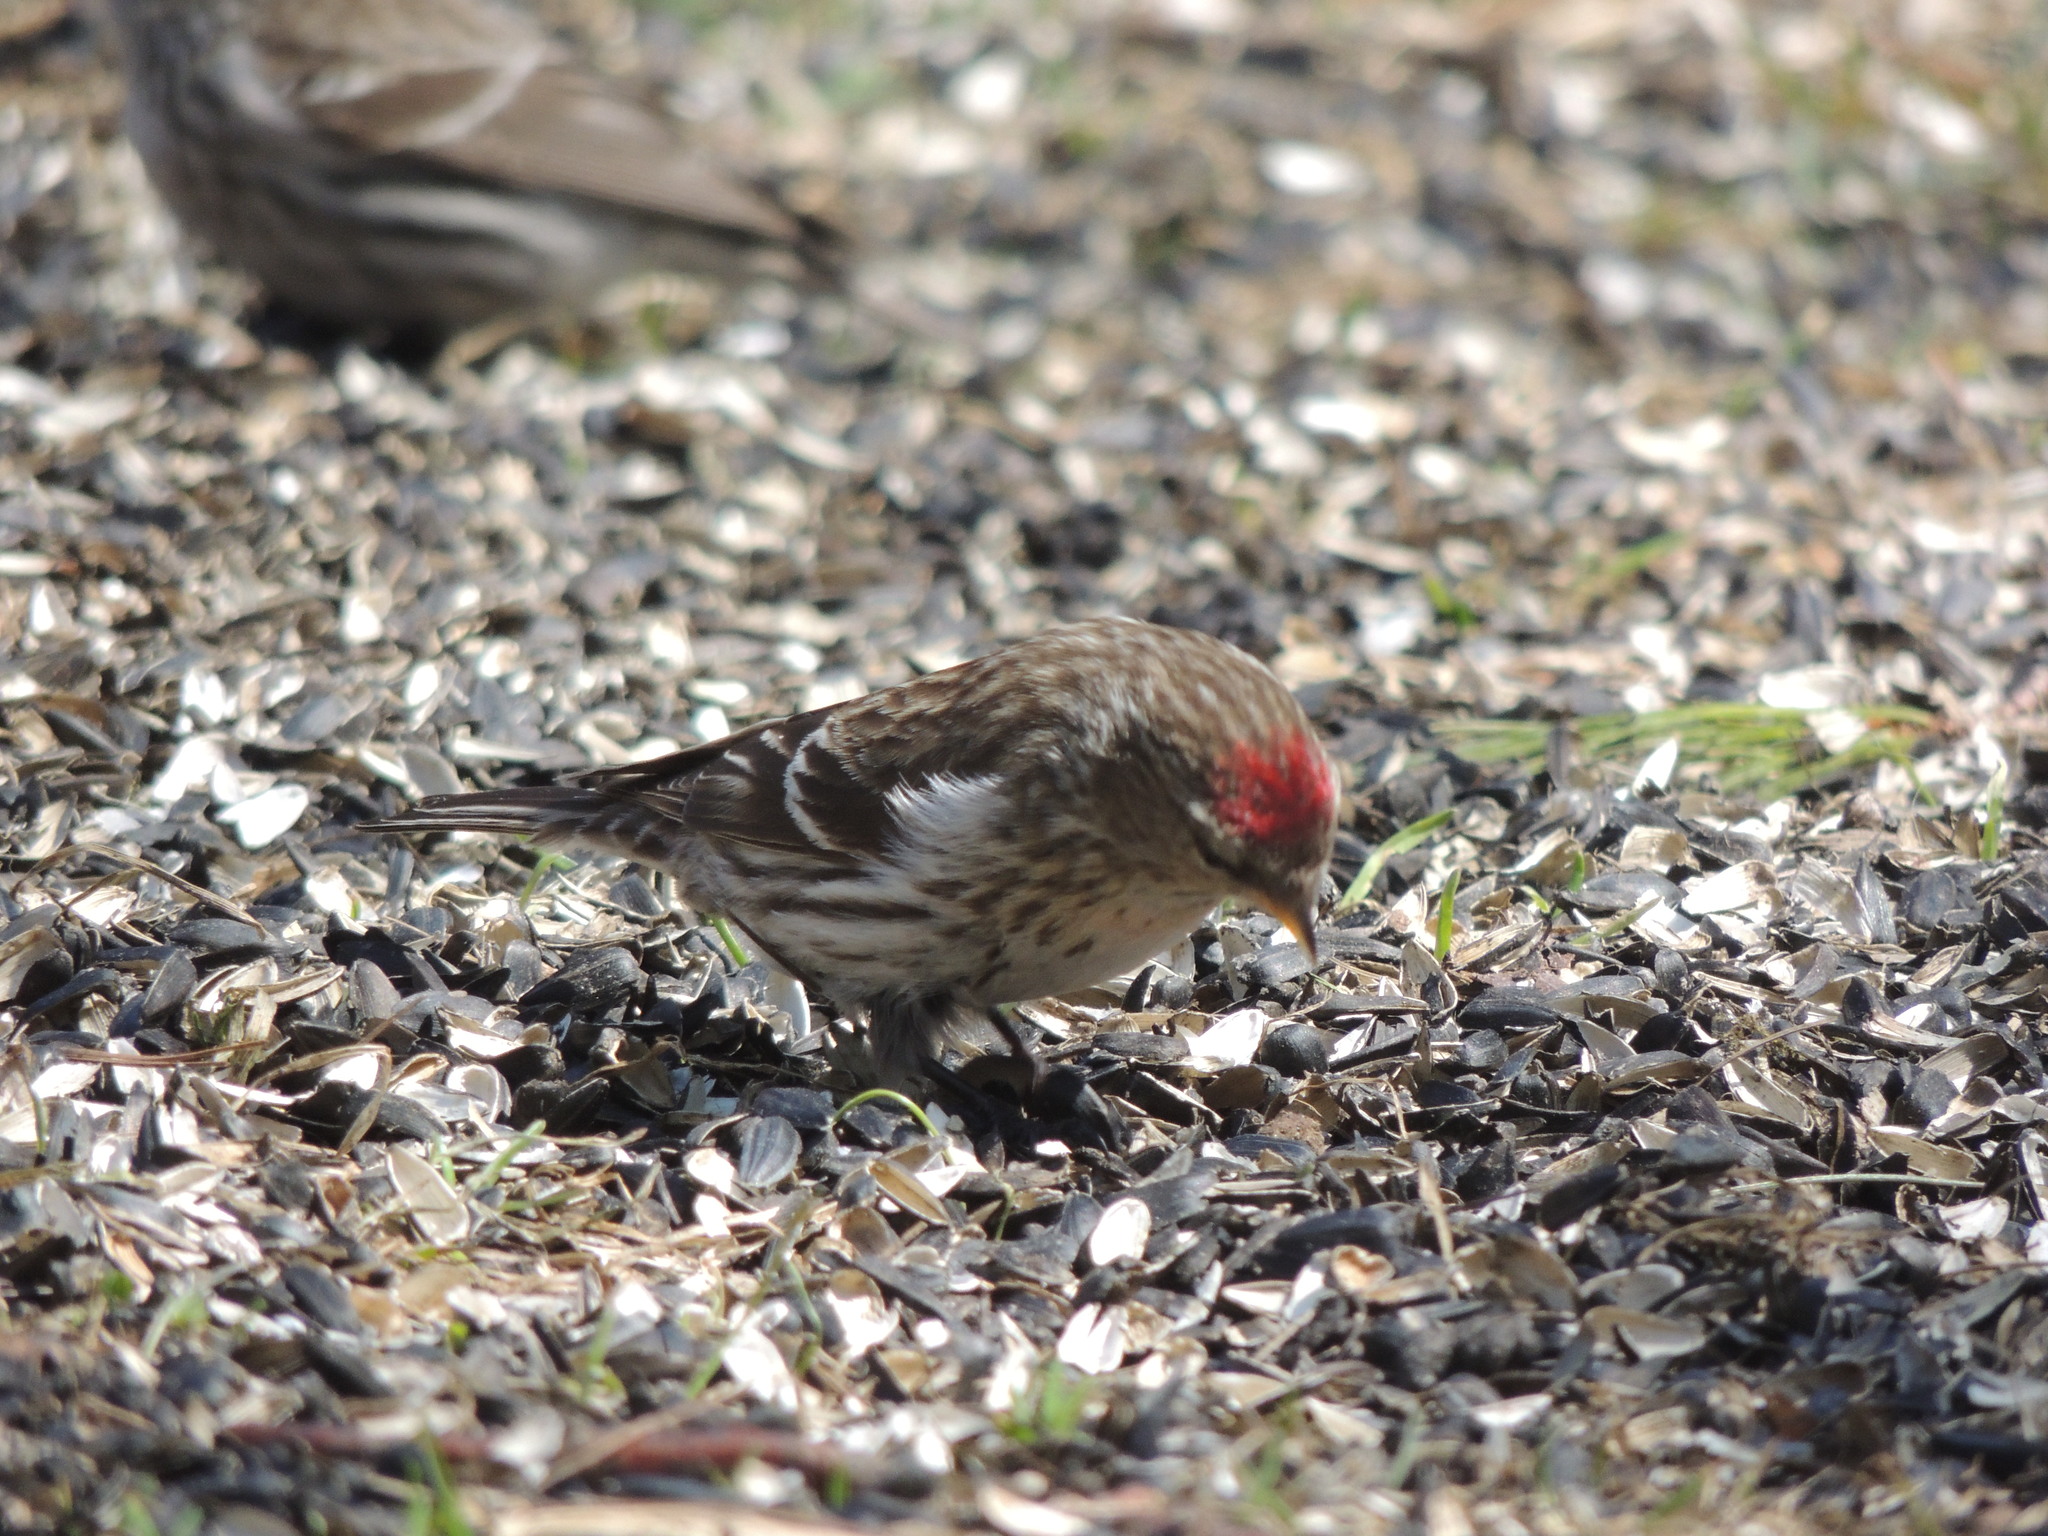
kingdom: Animalia
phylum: Chordata
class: Aves
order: Passeriformes
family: Fringillidae
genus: Acanthis
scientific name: Acanthis flammea
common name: Common redpoll
